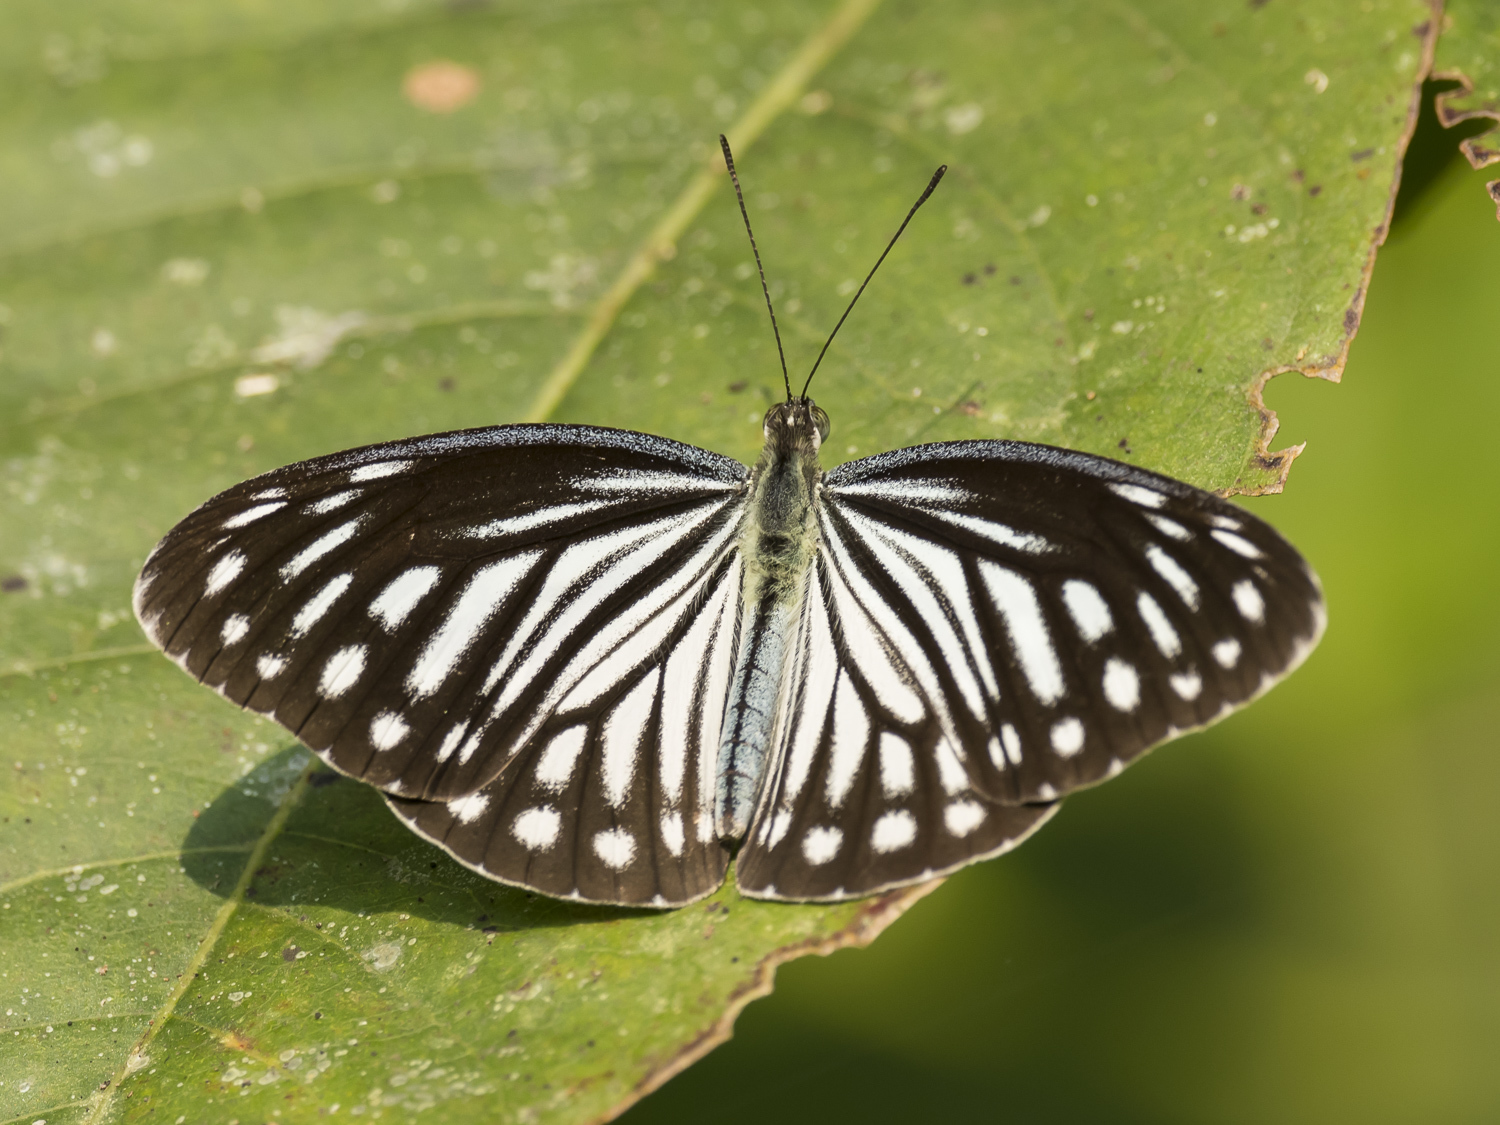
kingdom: Animalia
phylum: Arthropoda
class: Insecta
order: Lepidoptera
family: Pieridae
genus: Pareronia
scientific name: Pareronia hippia
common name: Indian wanderer
